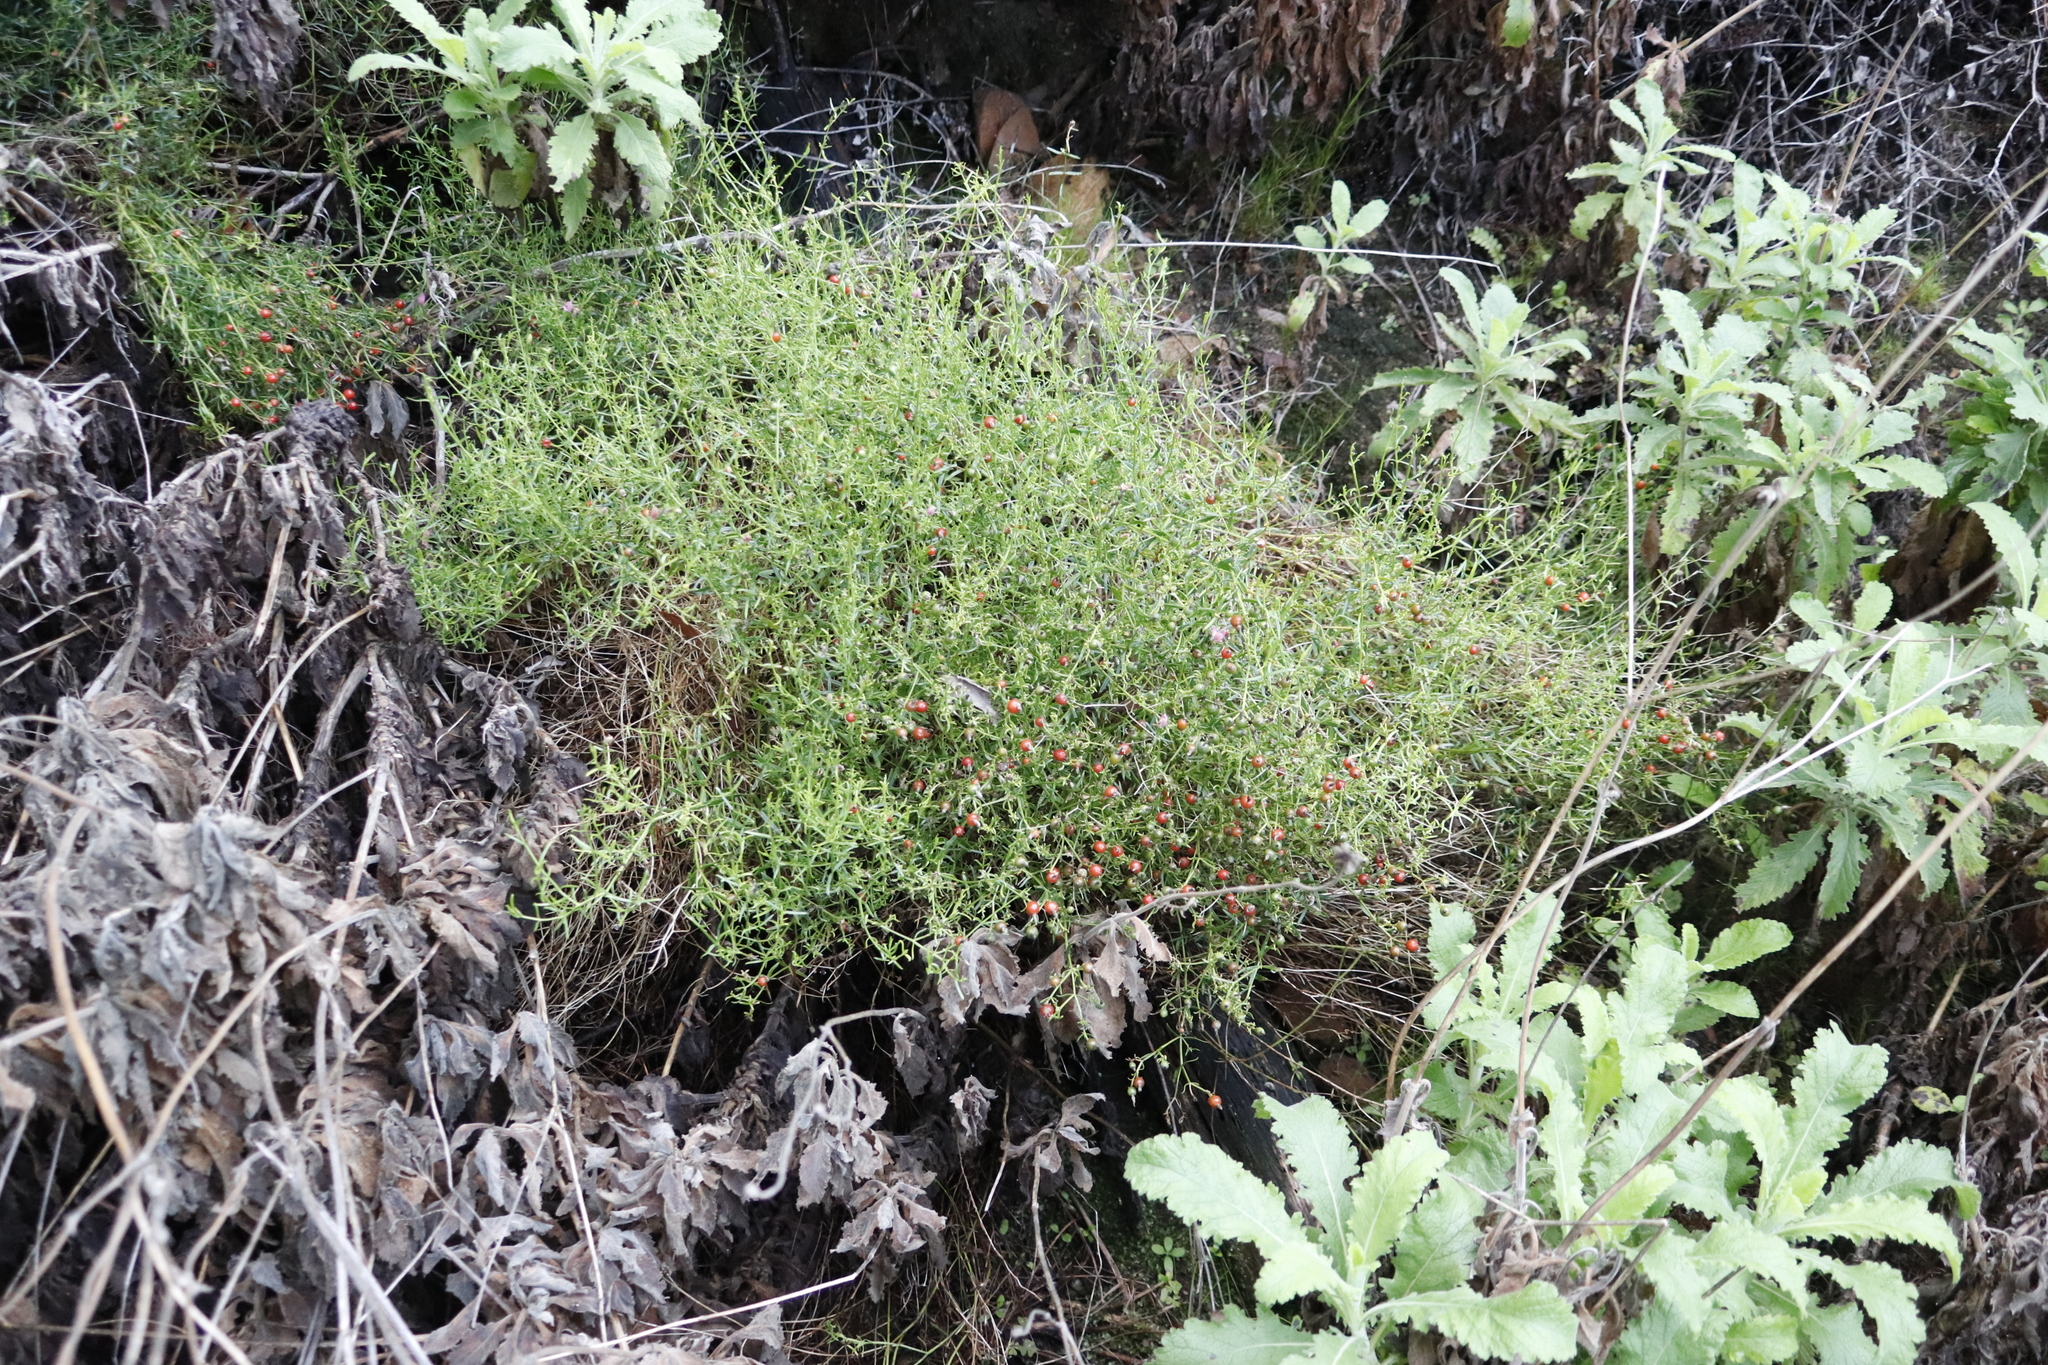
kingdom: Plantae
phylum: Tracheophyta
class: Magnoliopsida
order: Gentianales
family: Gentianaceae
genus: Chironia
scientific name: Chironia baccifera
